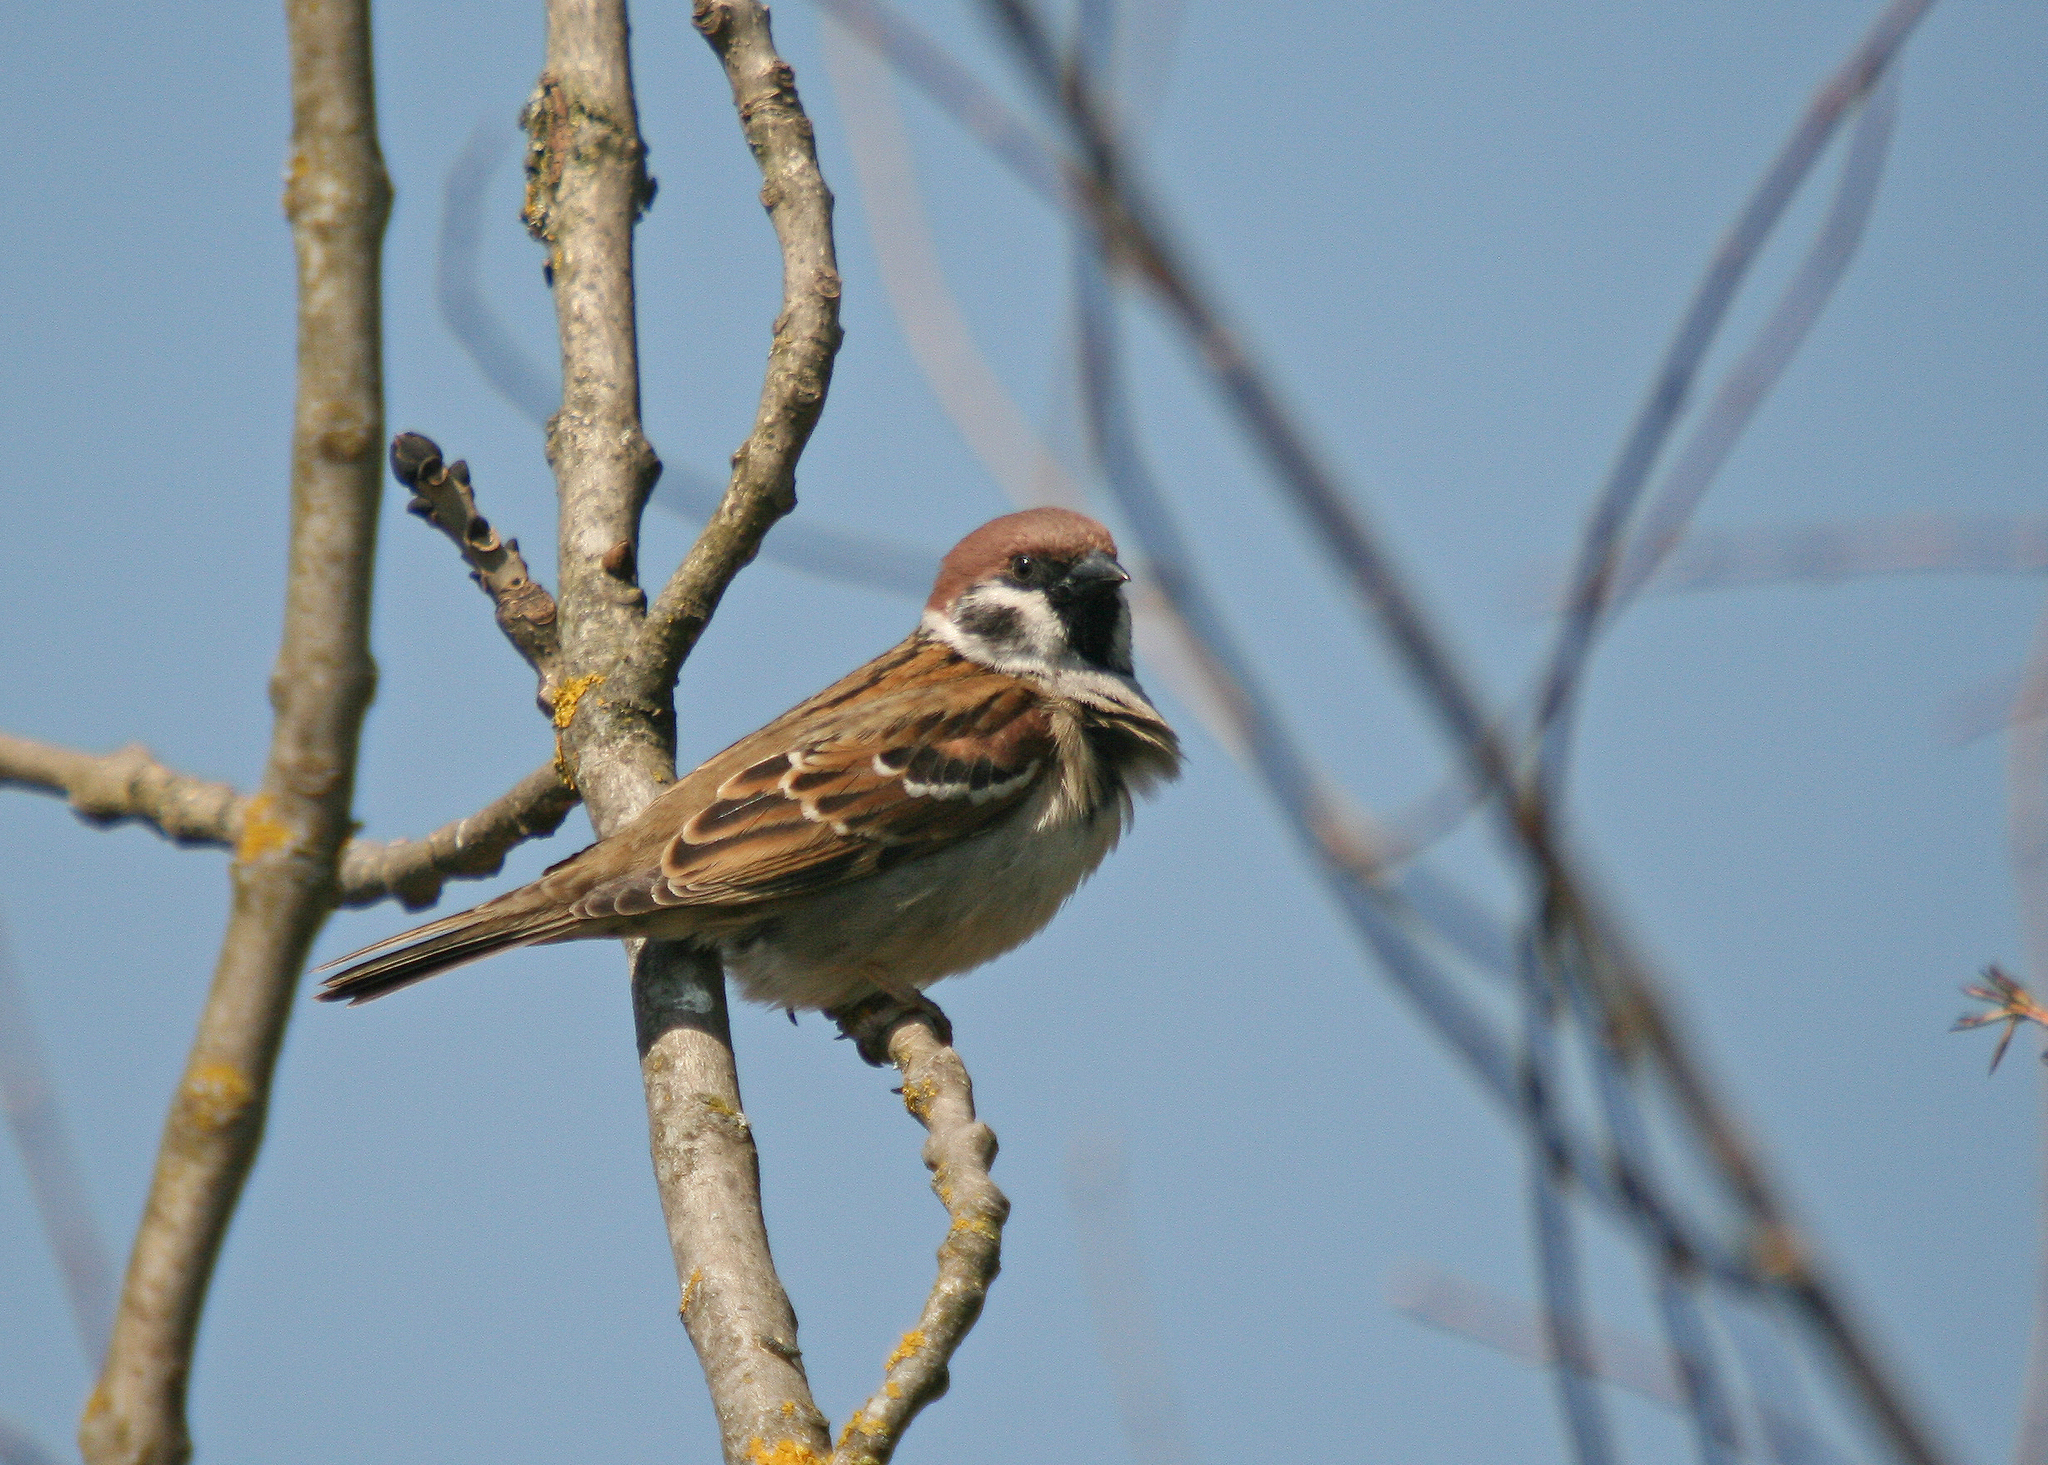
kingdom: Animalia
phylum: Chordata
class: Aves
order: Passeriformes
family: Passeridae
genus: Passer
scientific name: Passer montanus
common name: Eurasian tree sparrow
